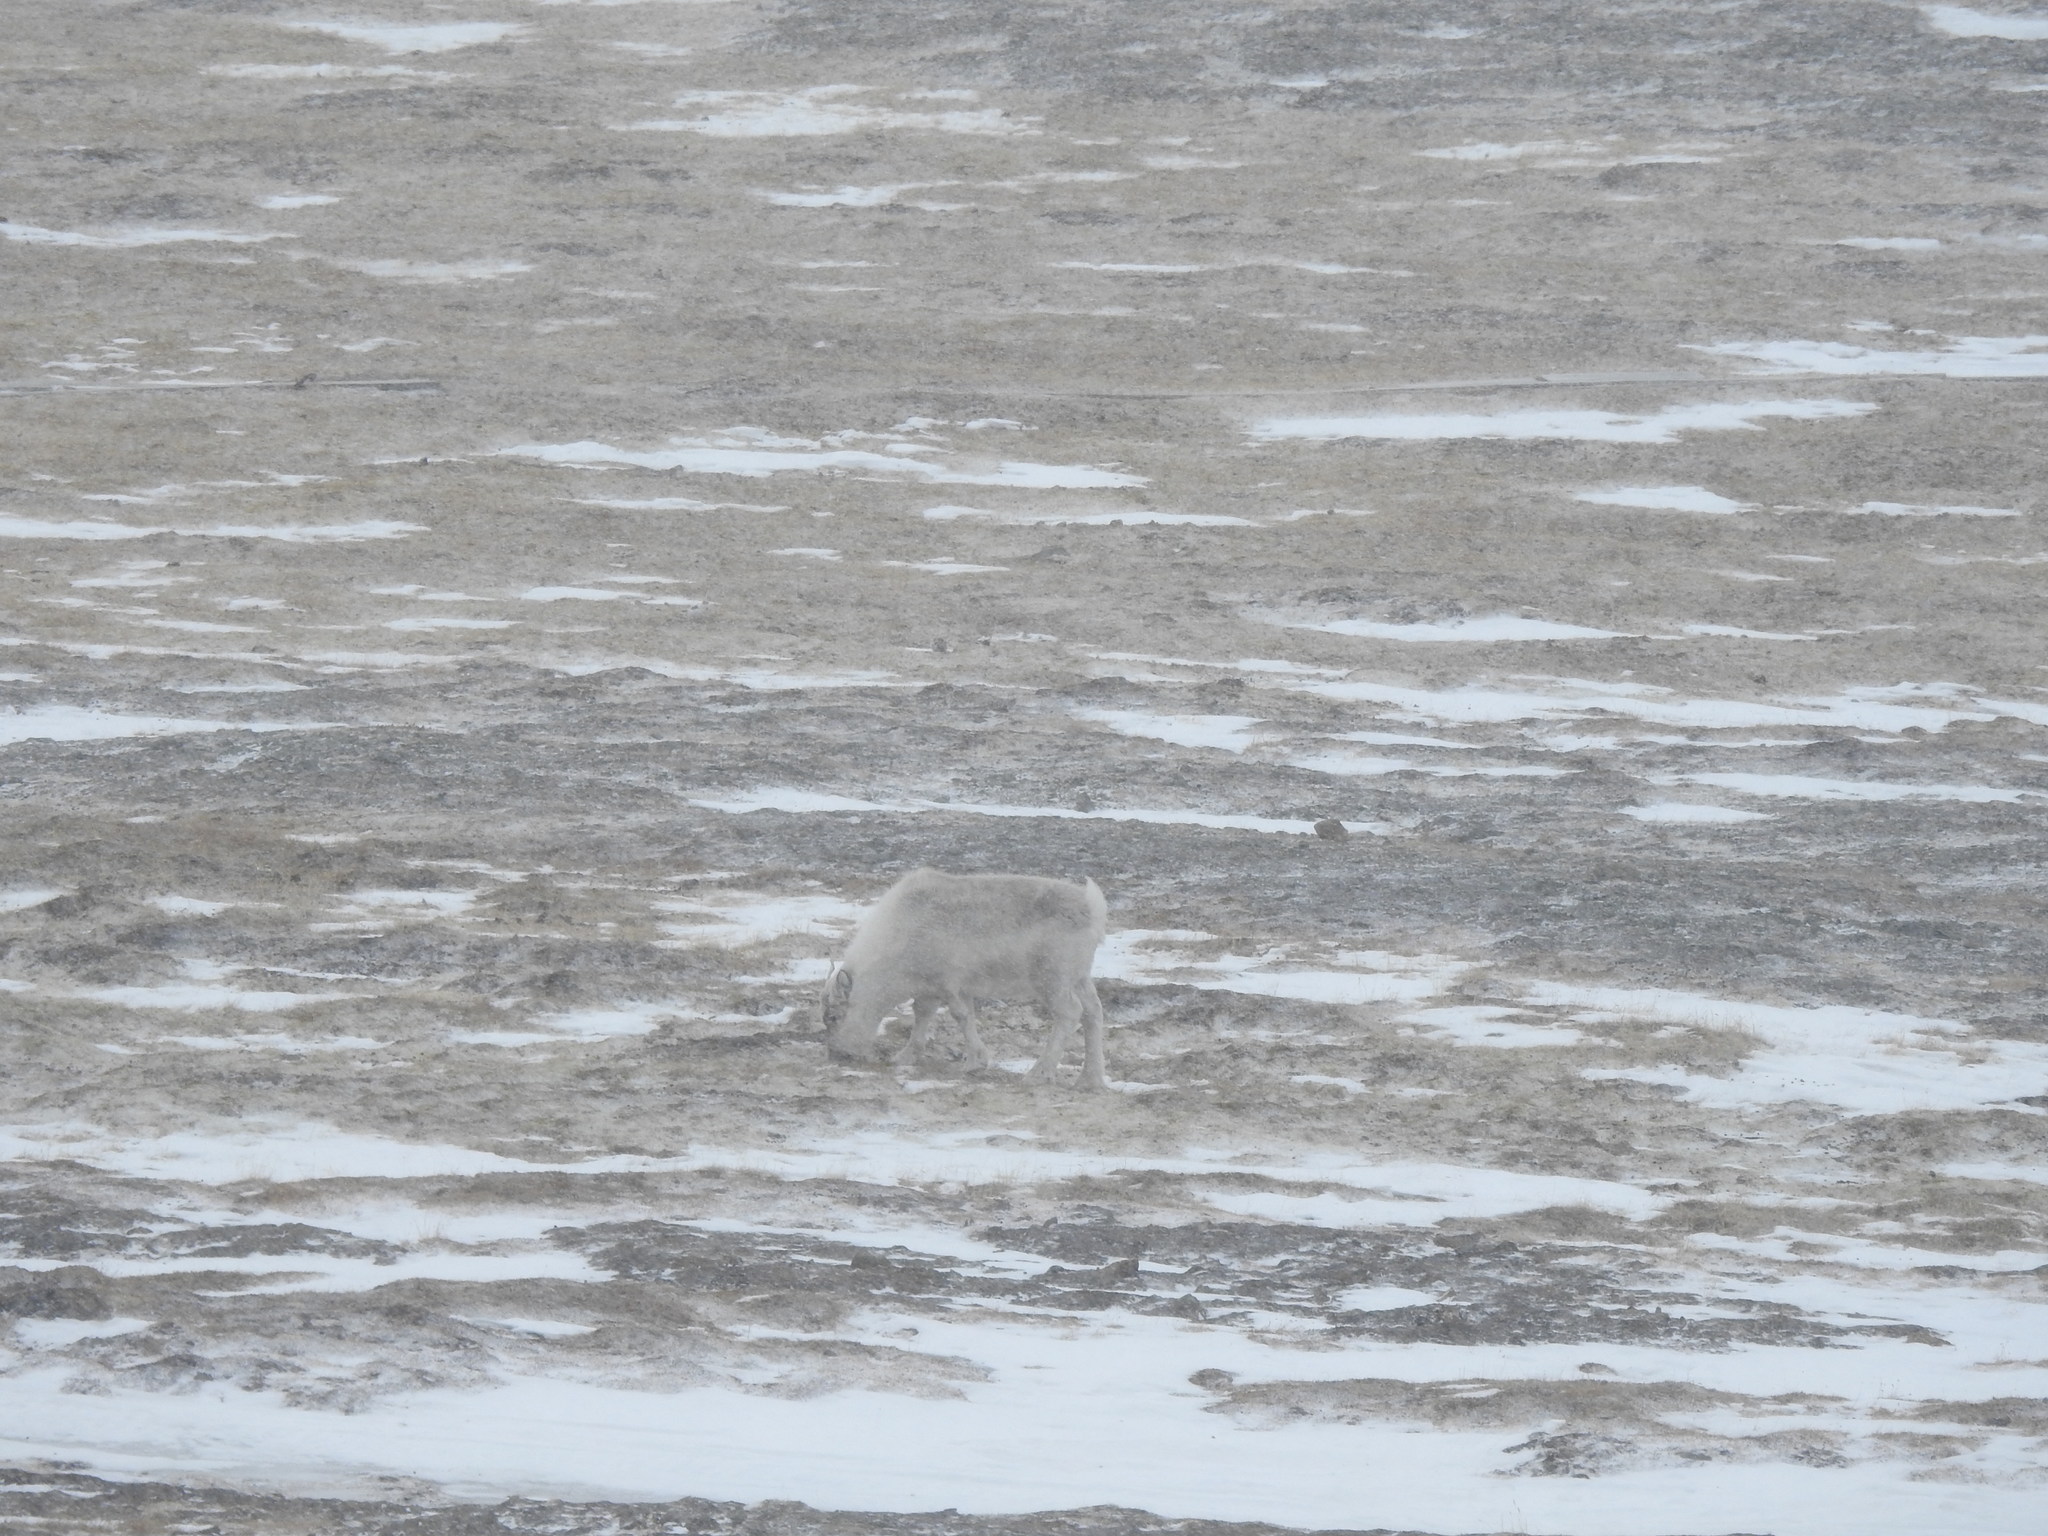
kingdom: Animalia
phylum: Chordata
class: Mammalia
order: Artiodactyla
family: Cervidae
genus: Rangifer
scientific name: Rangifer tarandus
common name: Reindeer
